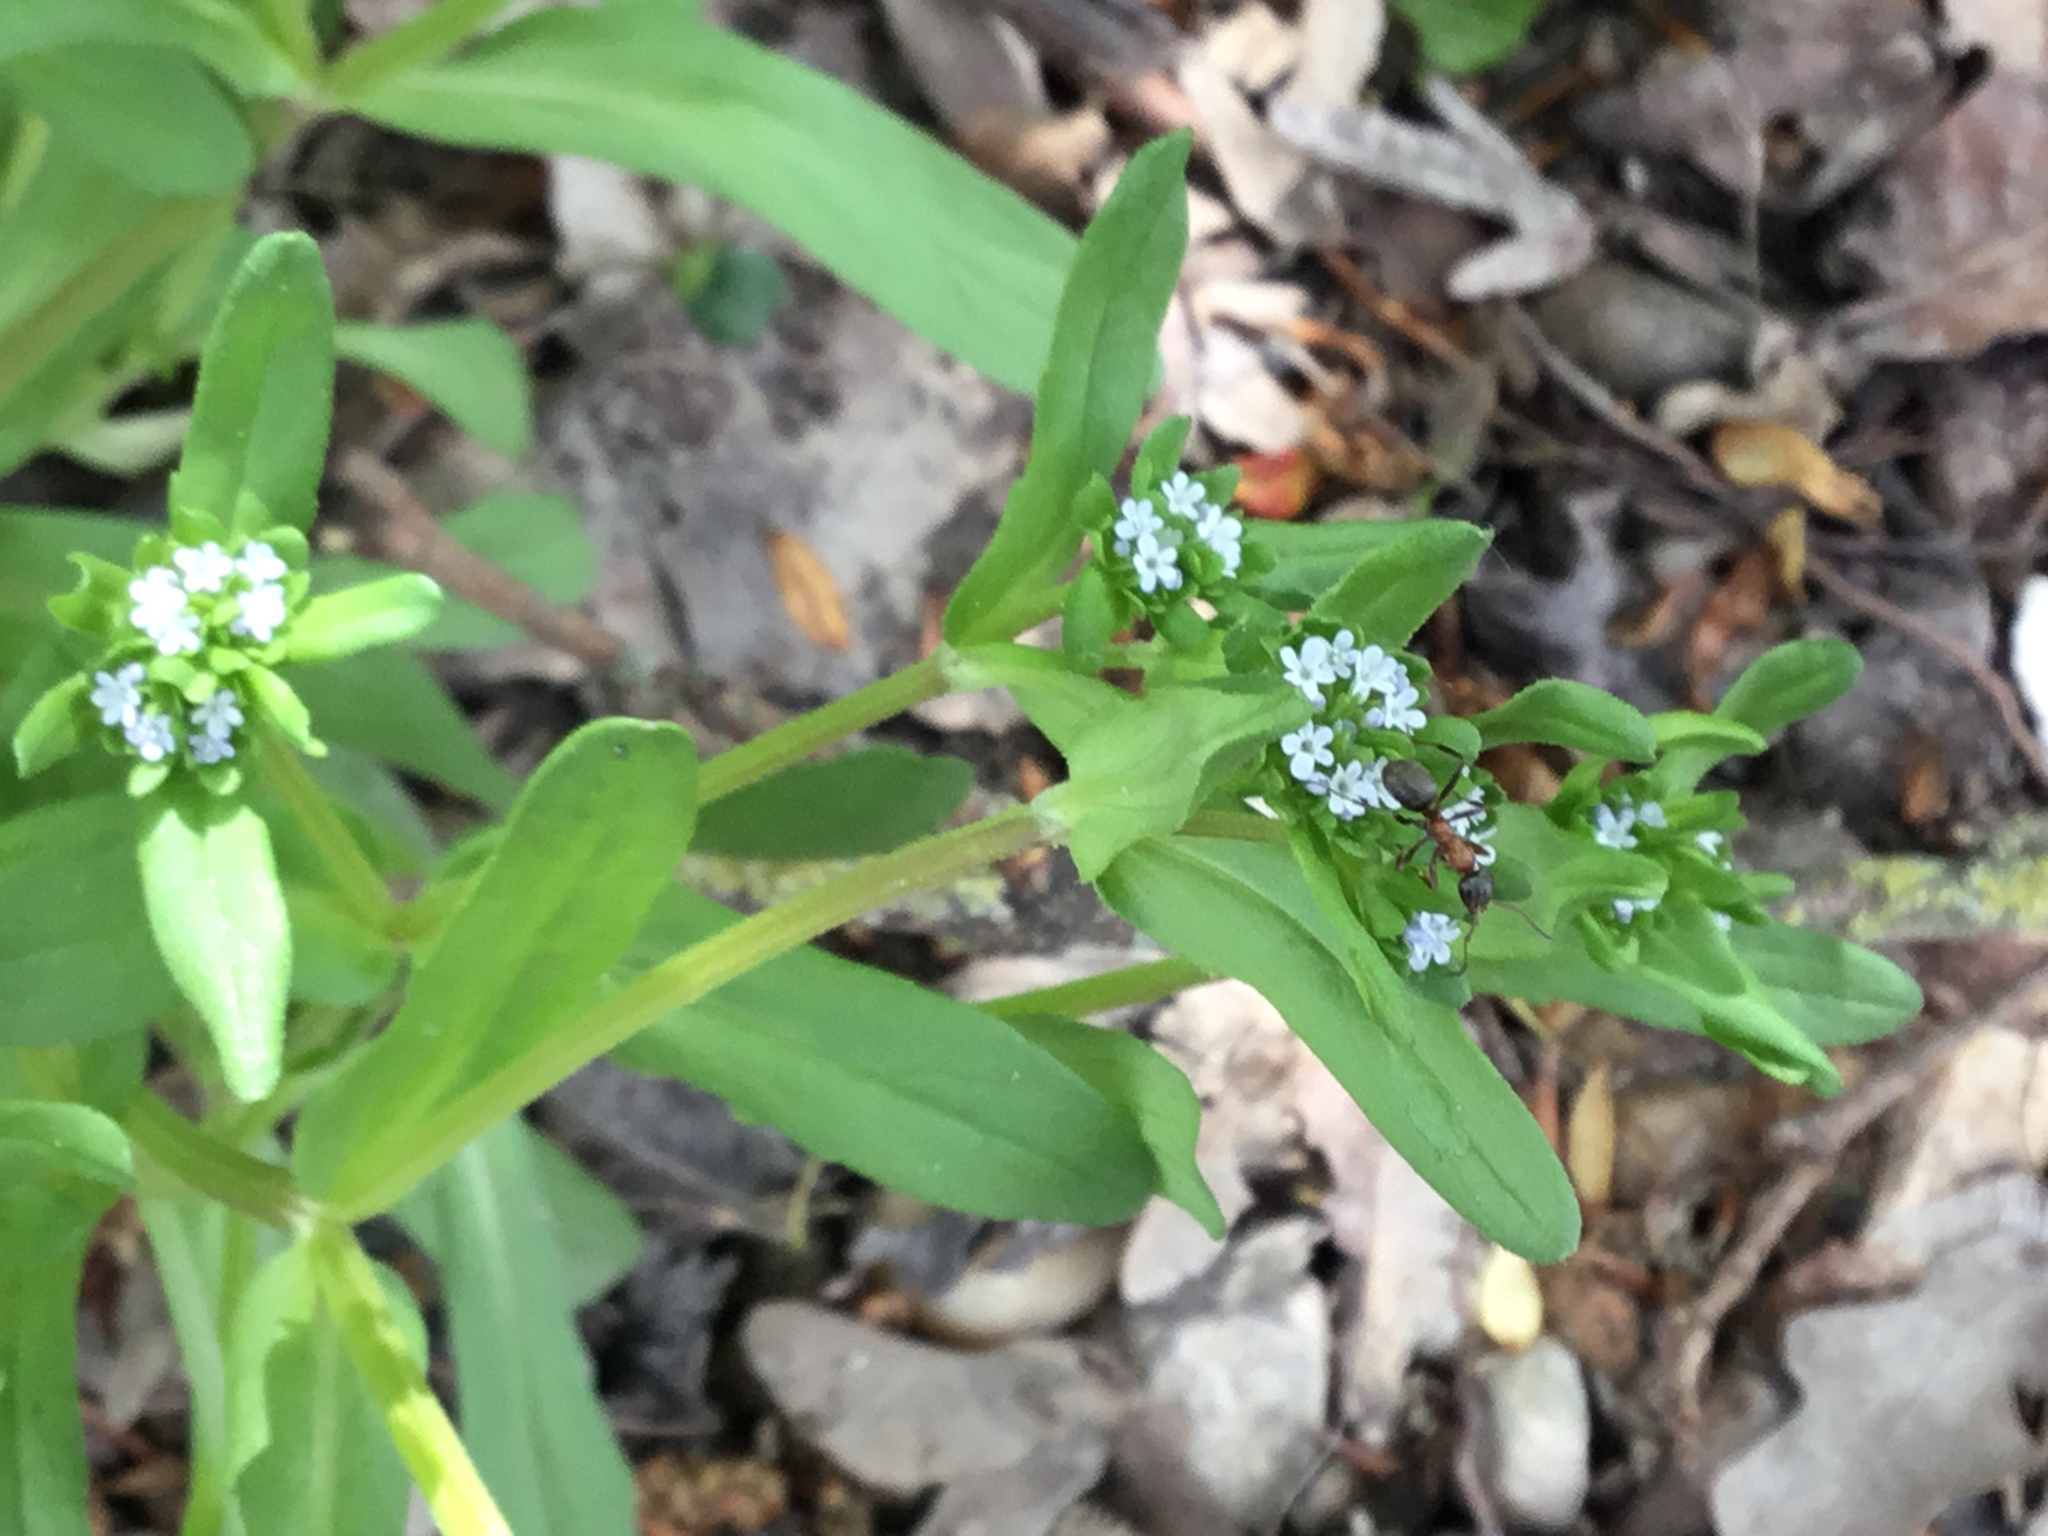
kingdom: Plantae
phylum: Tracheophyta
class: Magnoliopsida
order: Dipsacales
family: Caprifoliaceae
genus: Valerianella
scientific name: Valerianella locusta
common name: Common cornsalad
